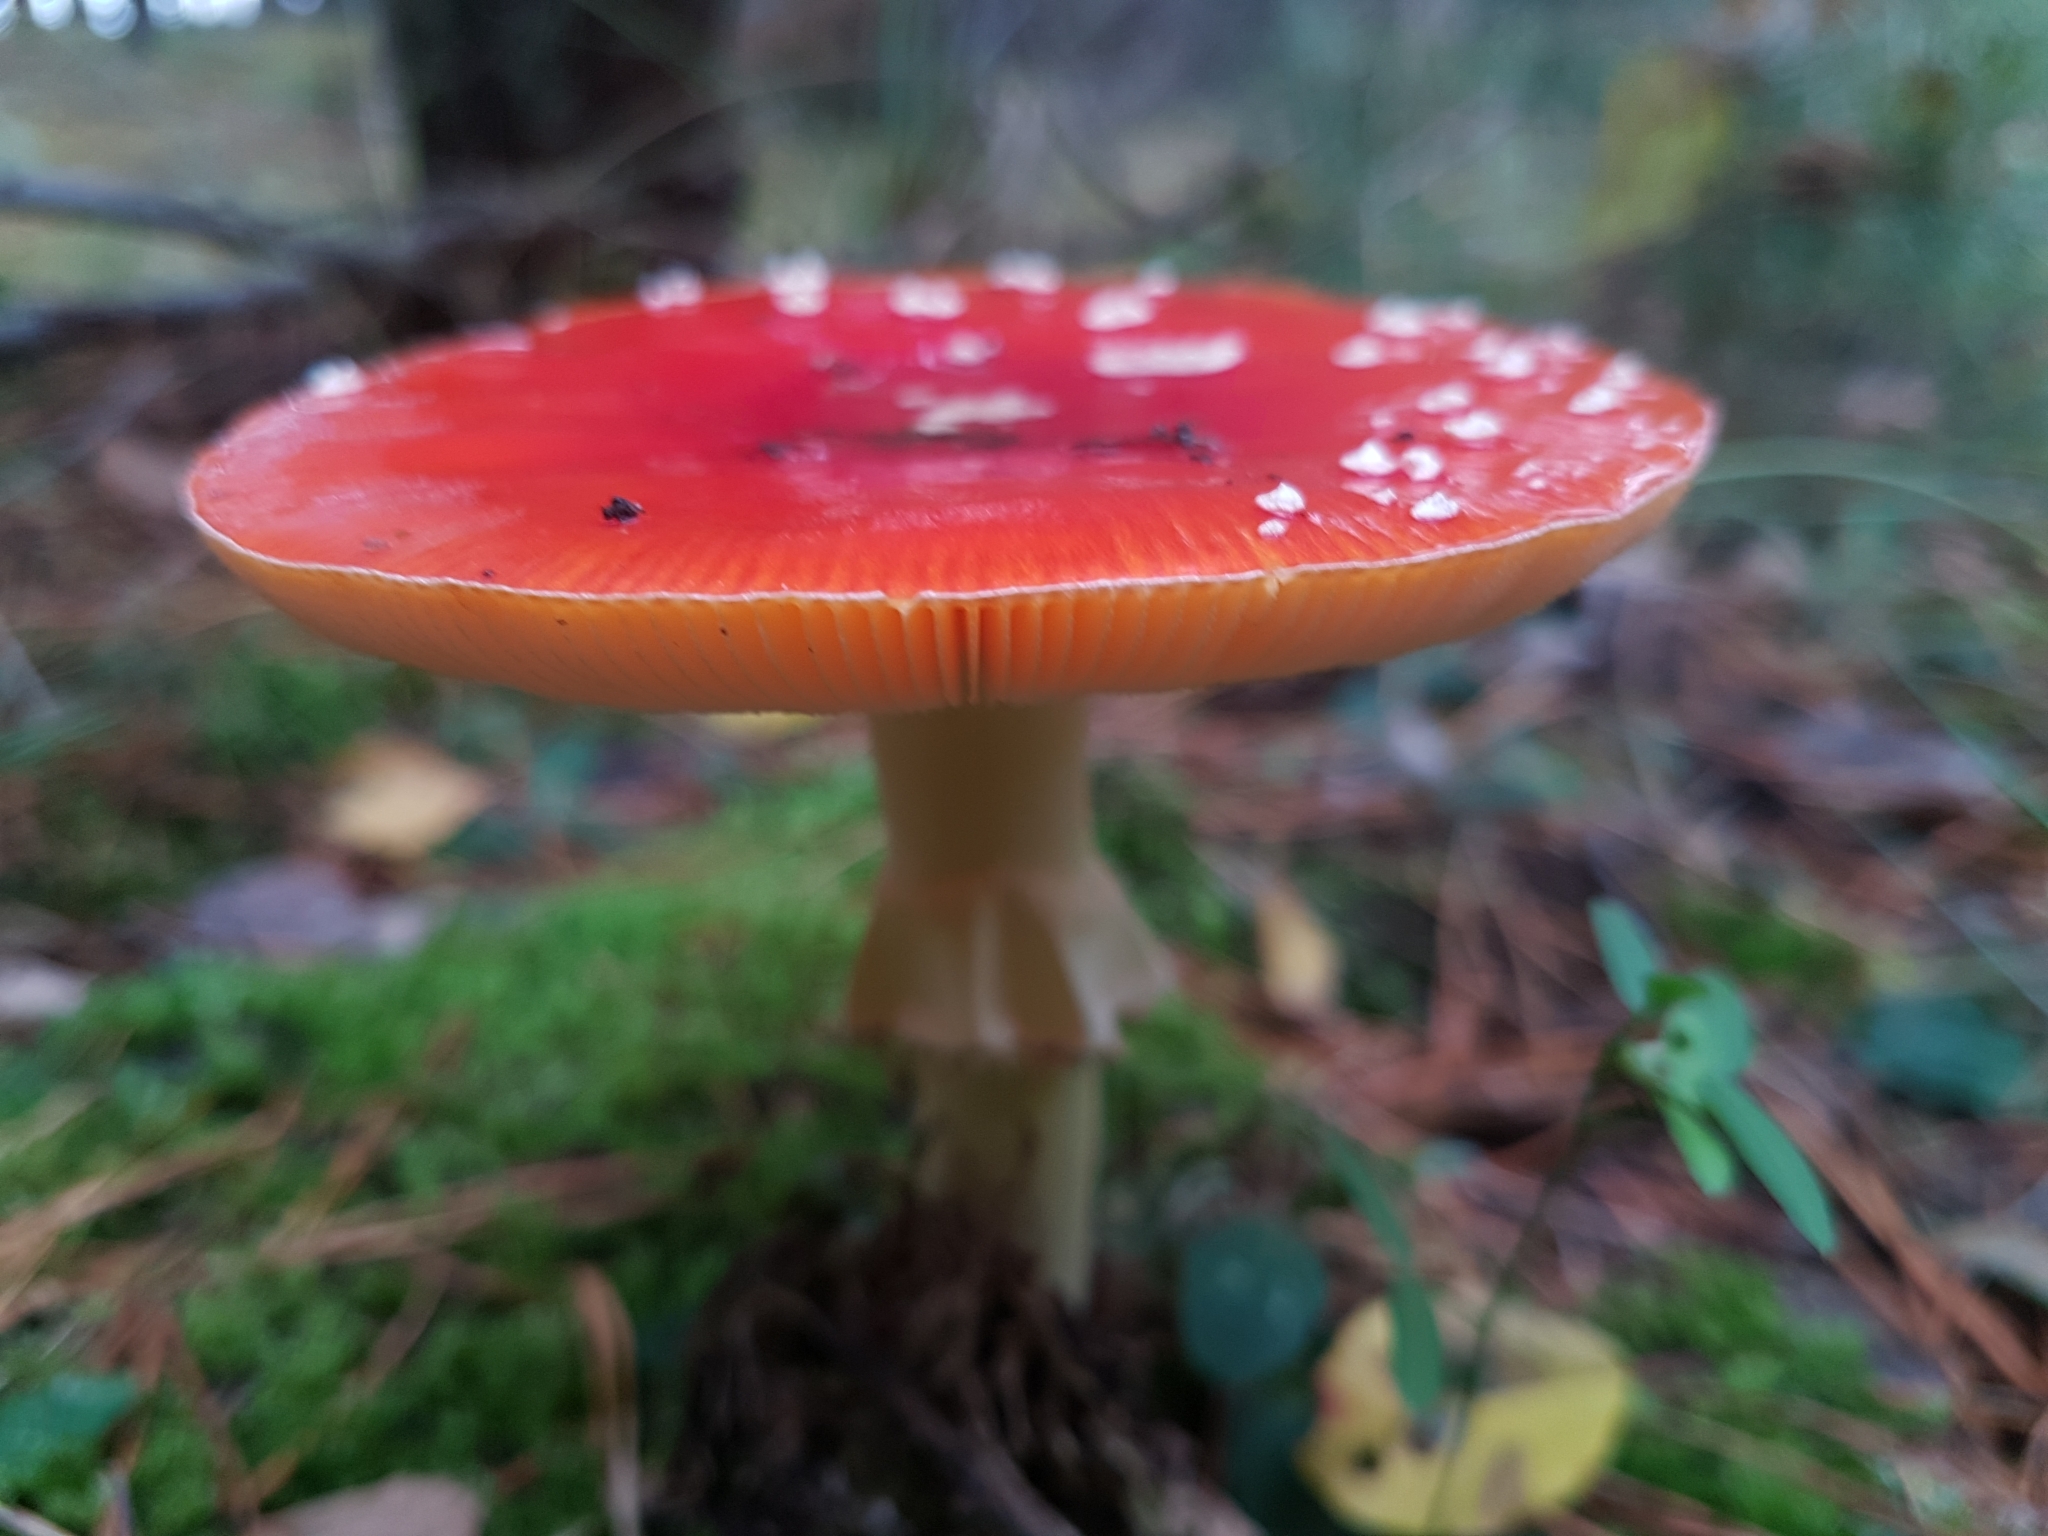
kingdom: Fungi
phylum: Basidiomycota
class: Agaricomycetes
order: Agaricales
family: Amanitaceae
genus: Amanita
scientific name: Amanita muscaria
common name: Fly agaric
